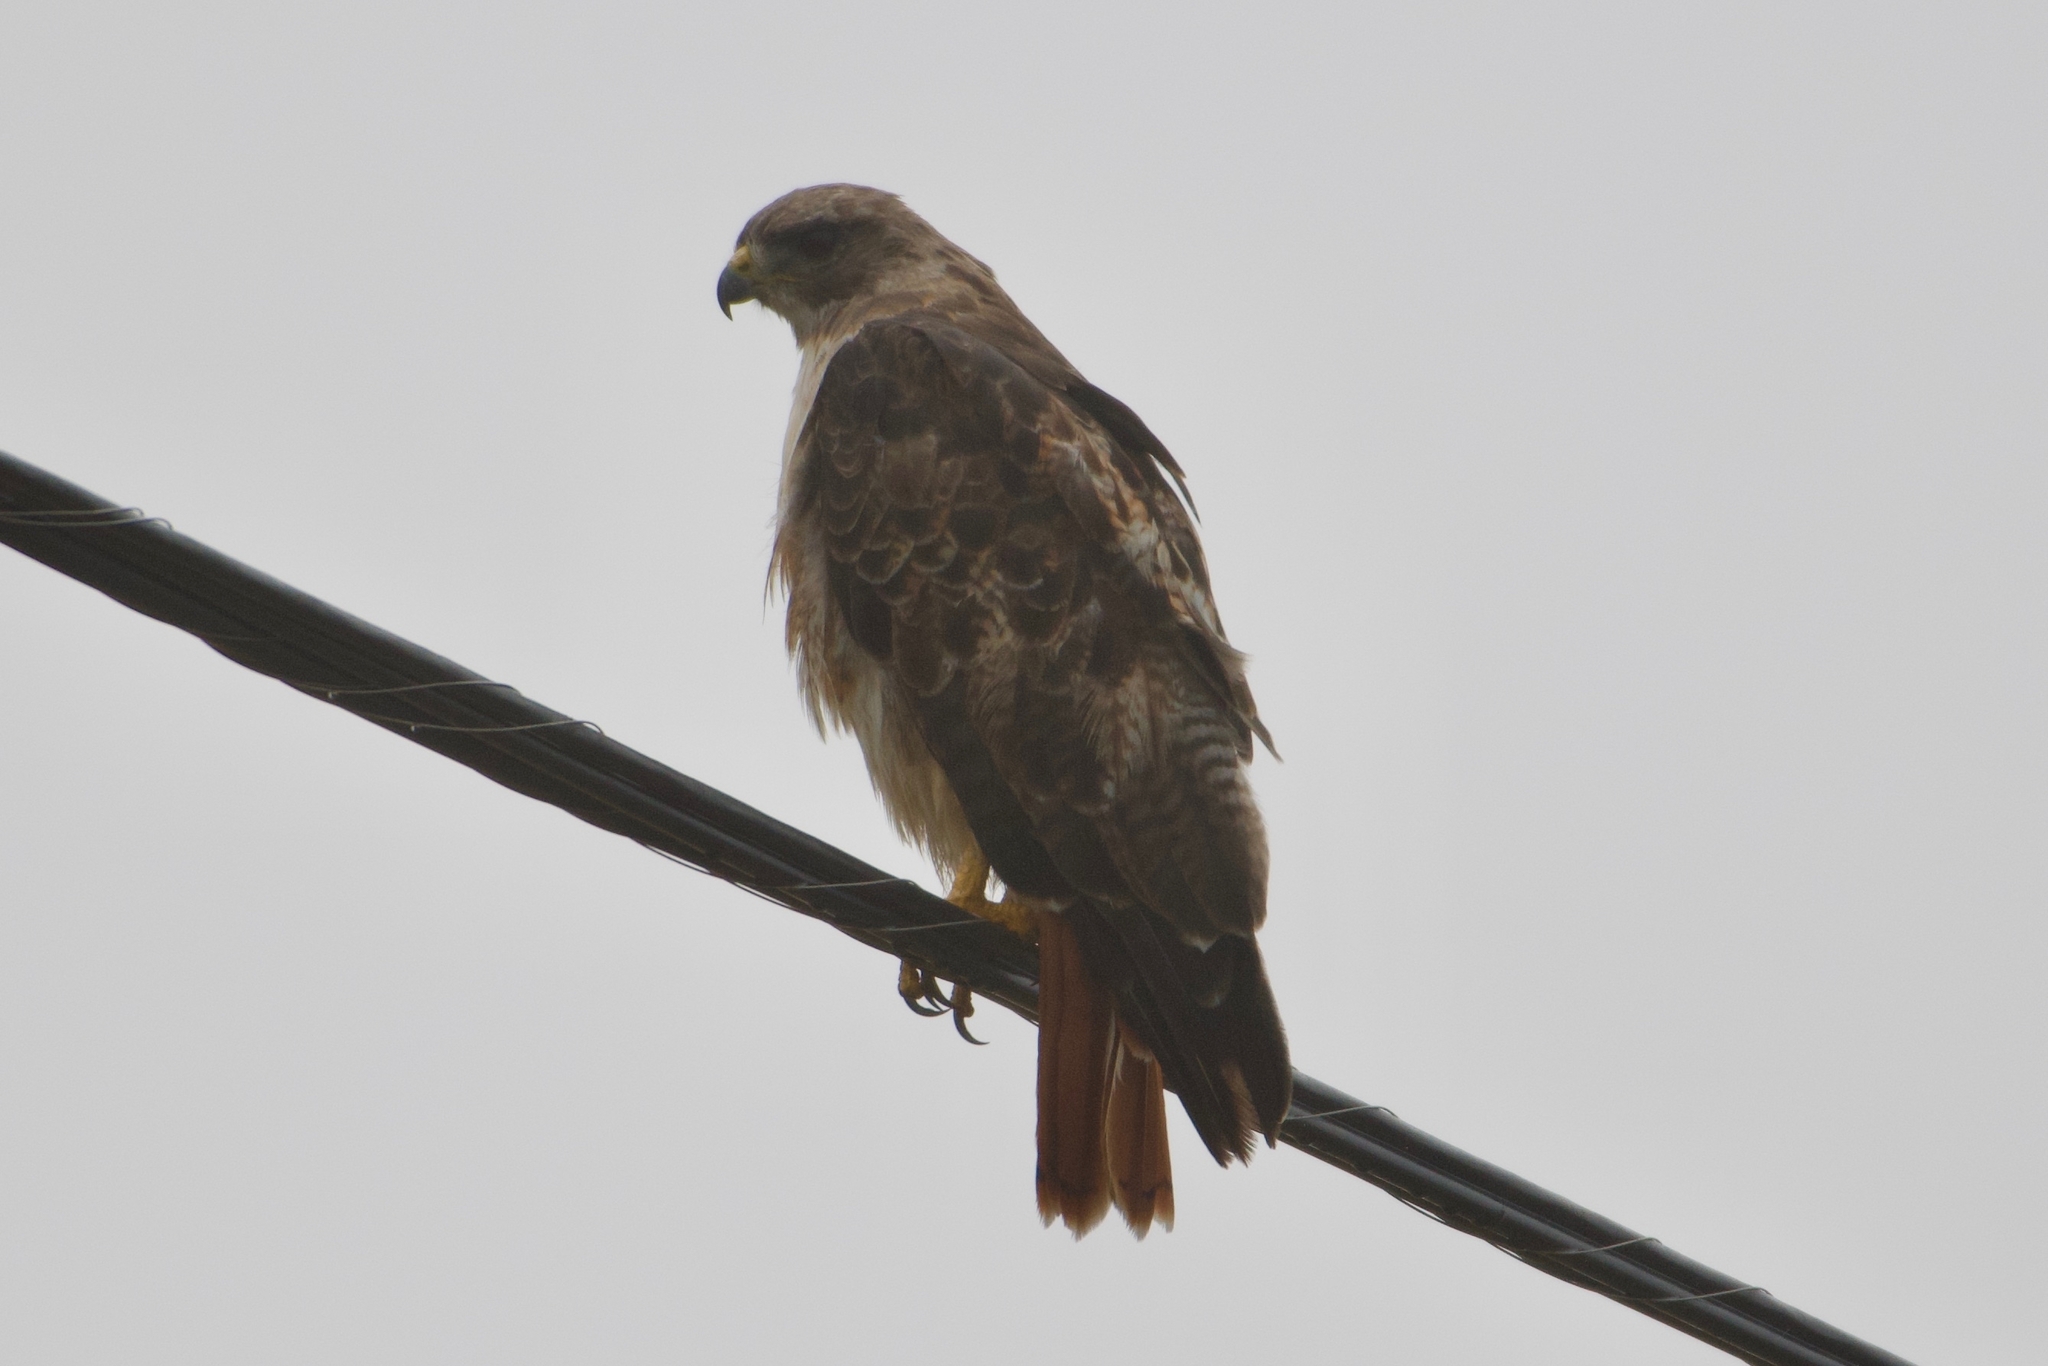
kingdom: Animalia
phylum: Chordata
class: Aves
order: Accipitriformes
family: Accipitridae
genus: Buteo
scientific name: Buteo jamaicensis
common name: Red-tailed hawk
